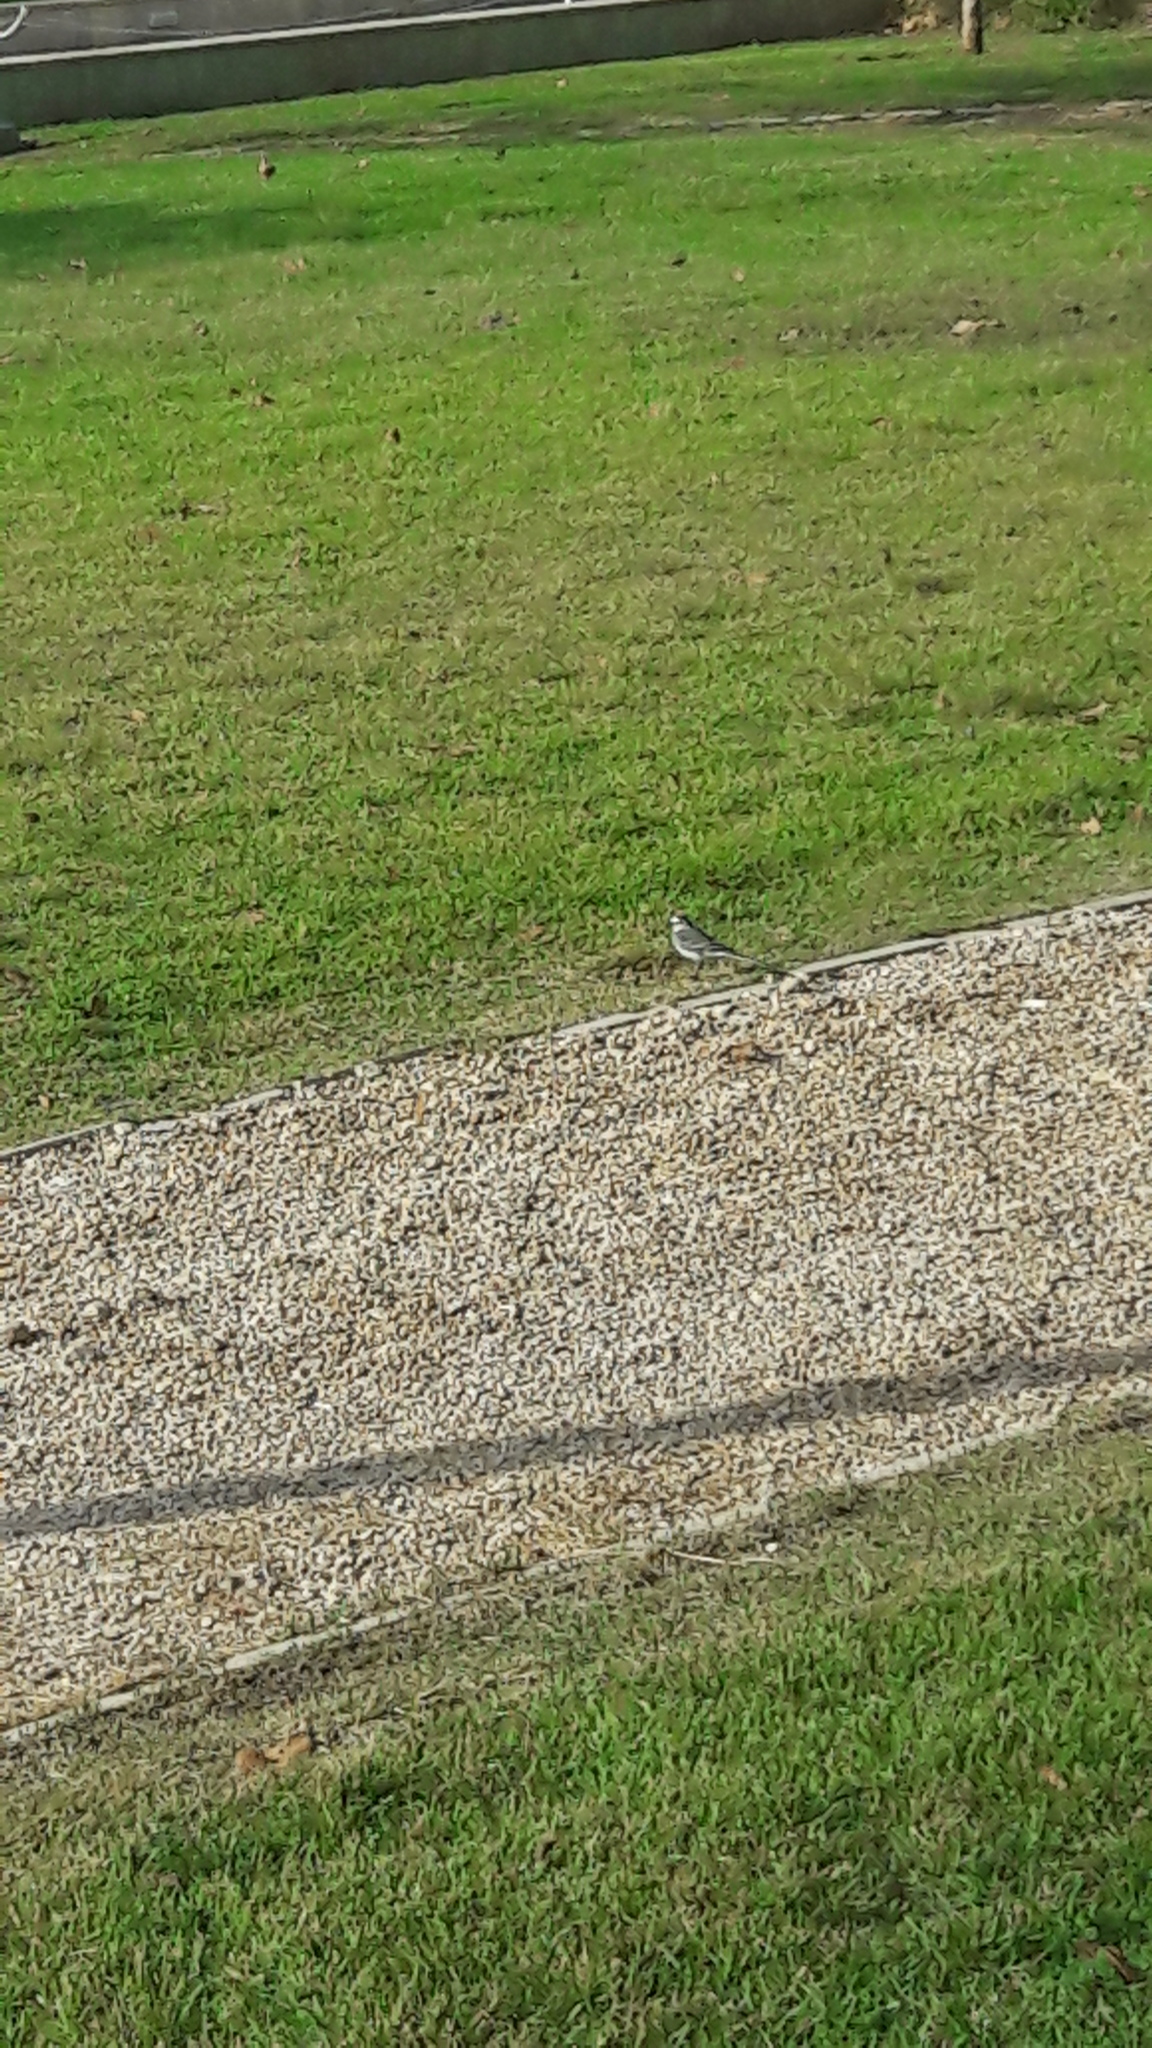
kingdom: Animalia
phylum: Chordata
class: Aves
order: Passeriformes
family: Motacillidae
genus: Motacilla
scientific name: Motacilla alba
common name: White wagtail
